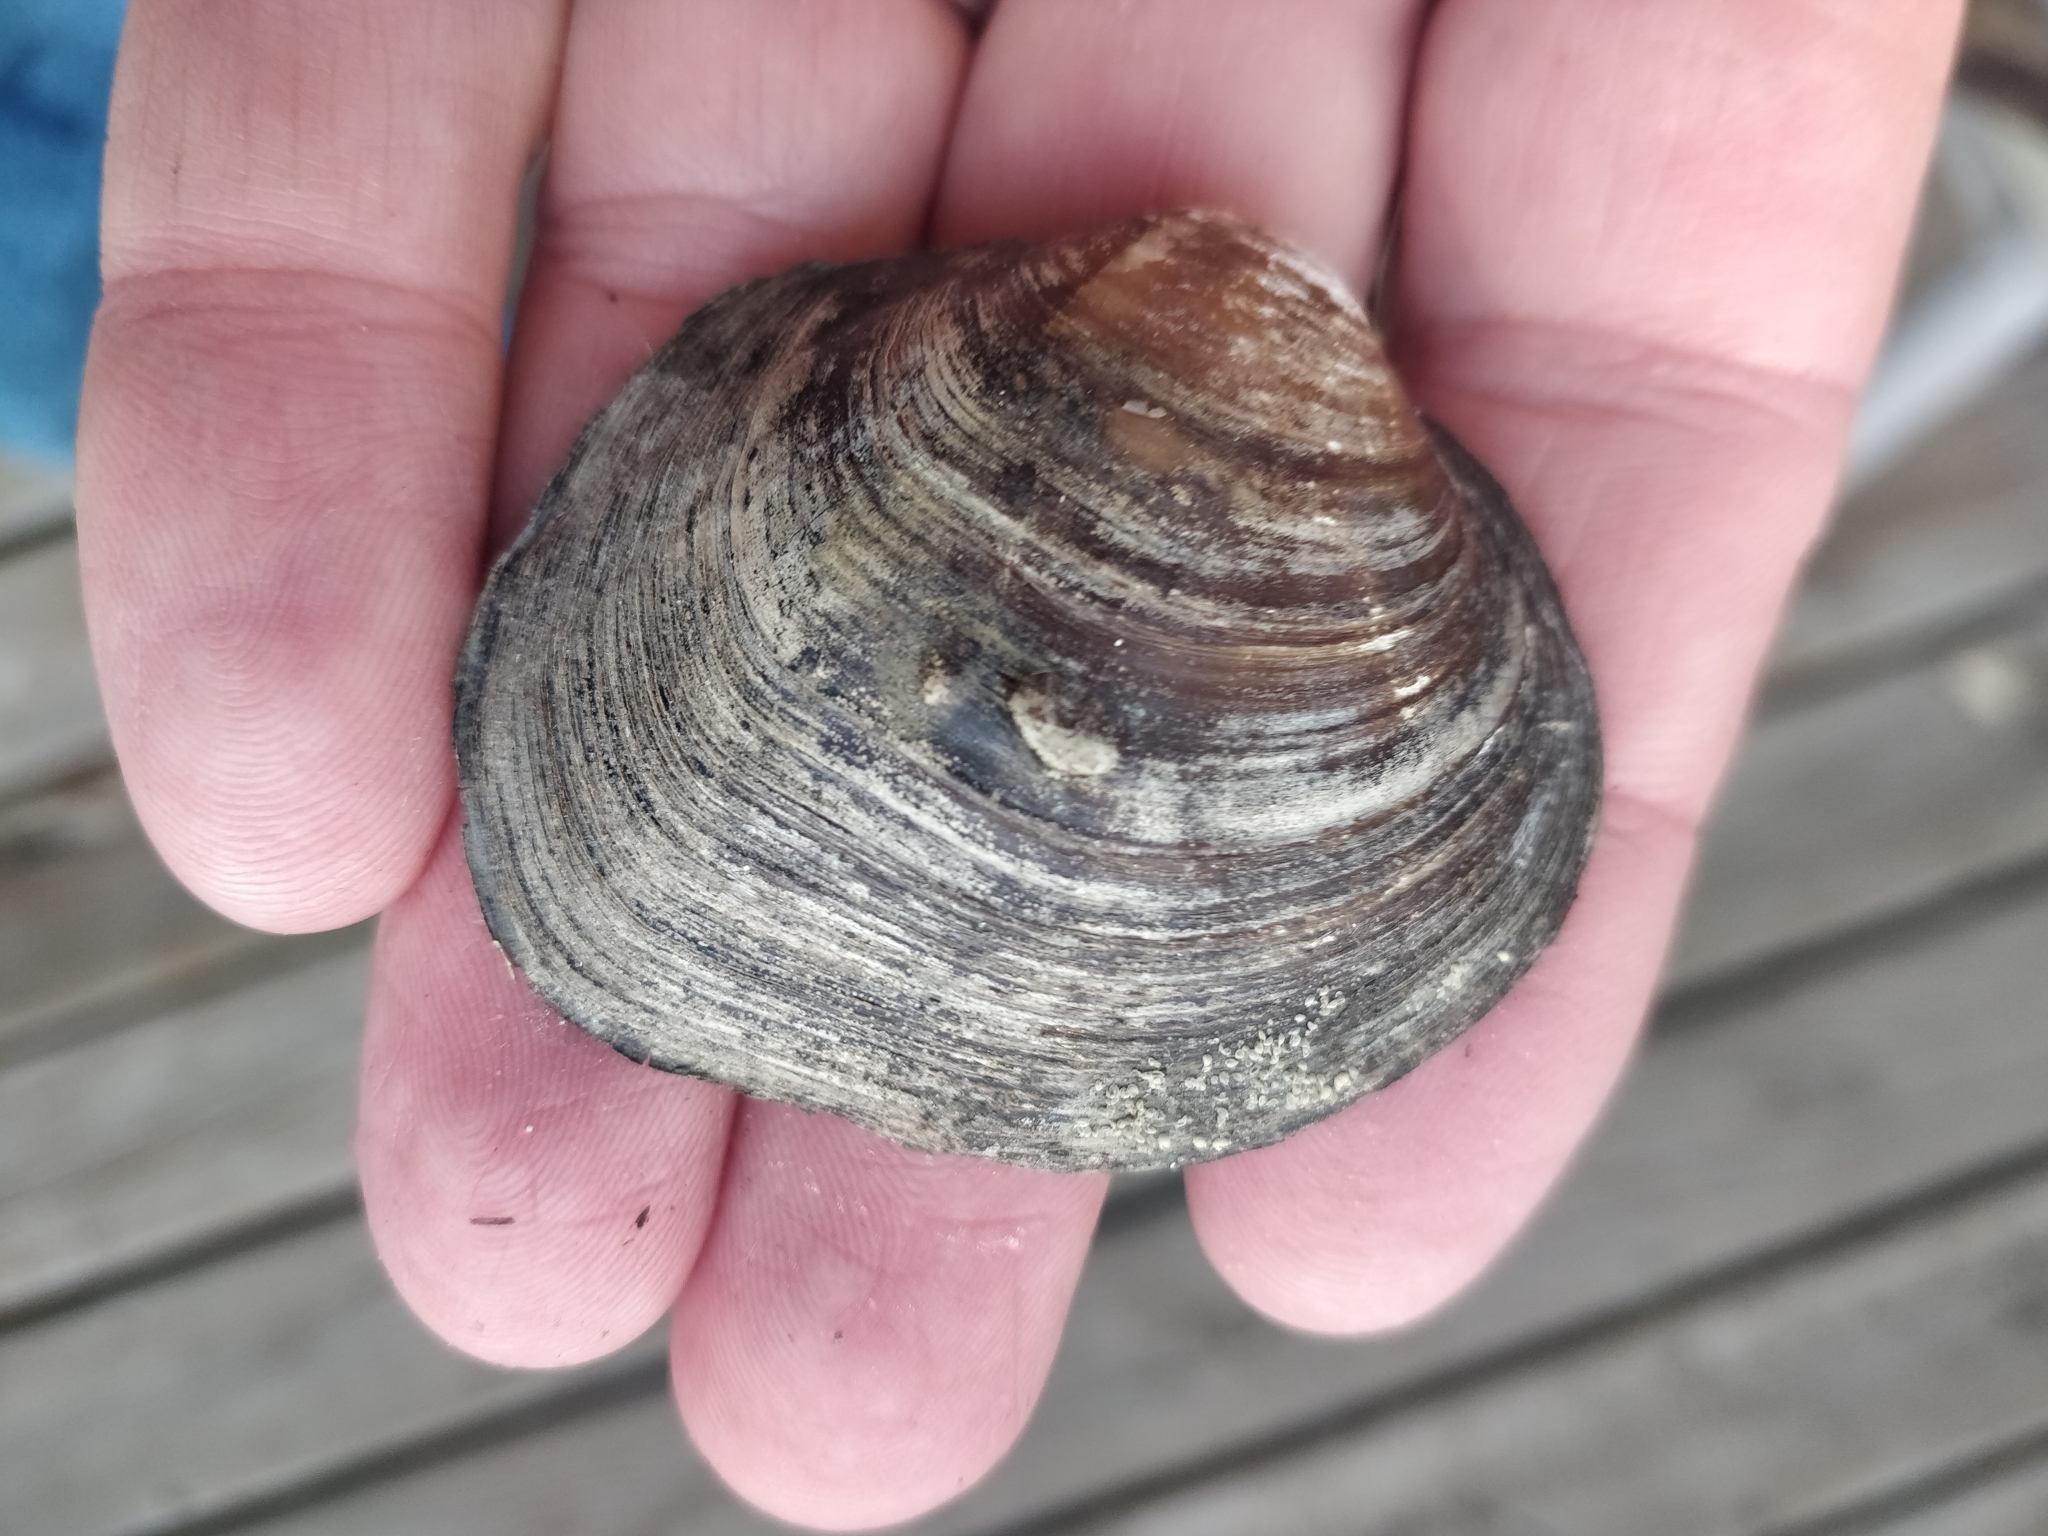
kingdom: Animalia
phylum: Mollusca
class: Bivalvia
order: Unionida
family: Unionidae
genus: Cyclonaias
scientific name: Cyclonaias pustulosa
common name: Pimpleback
